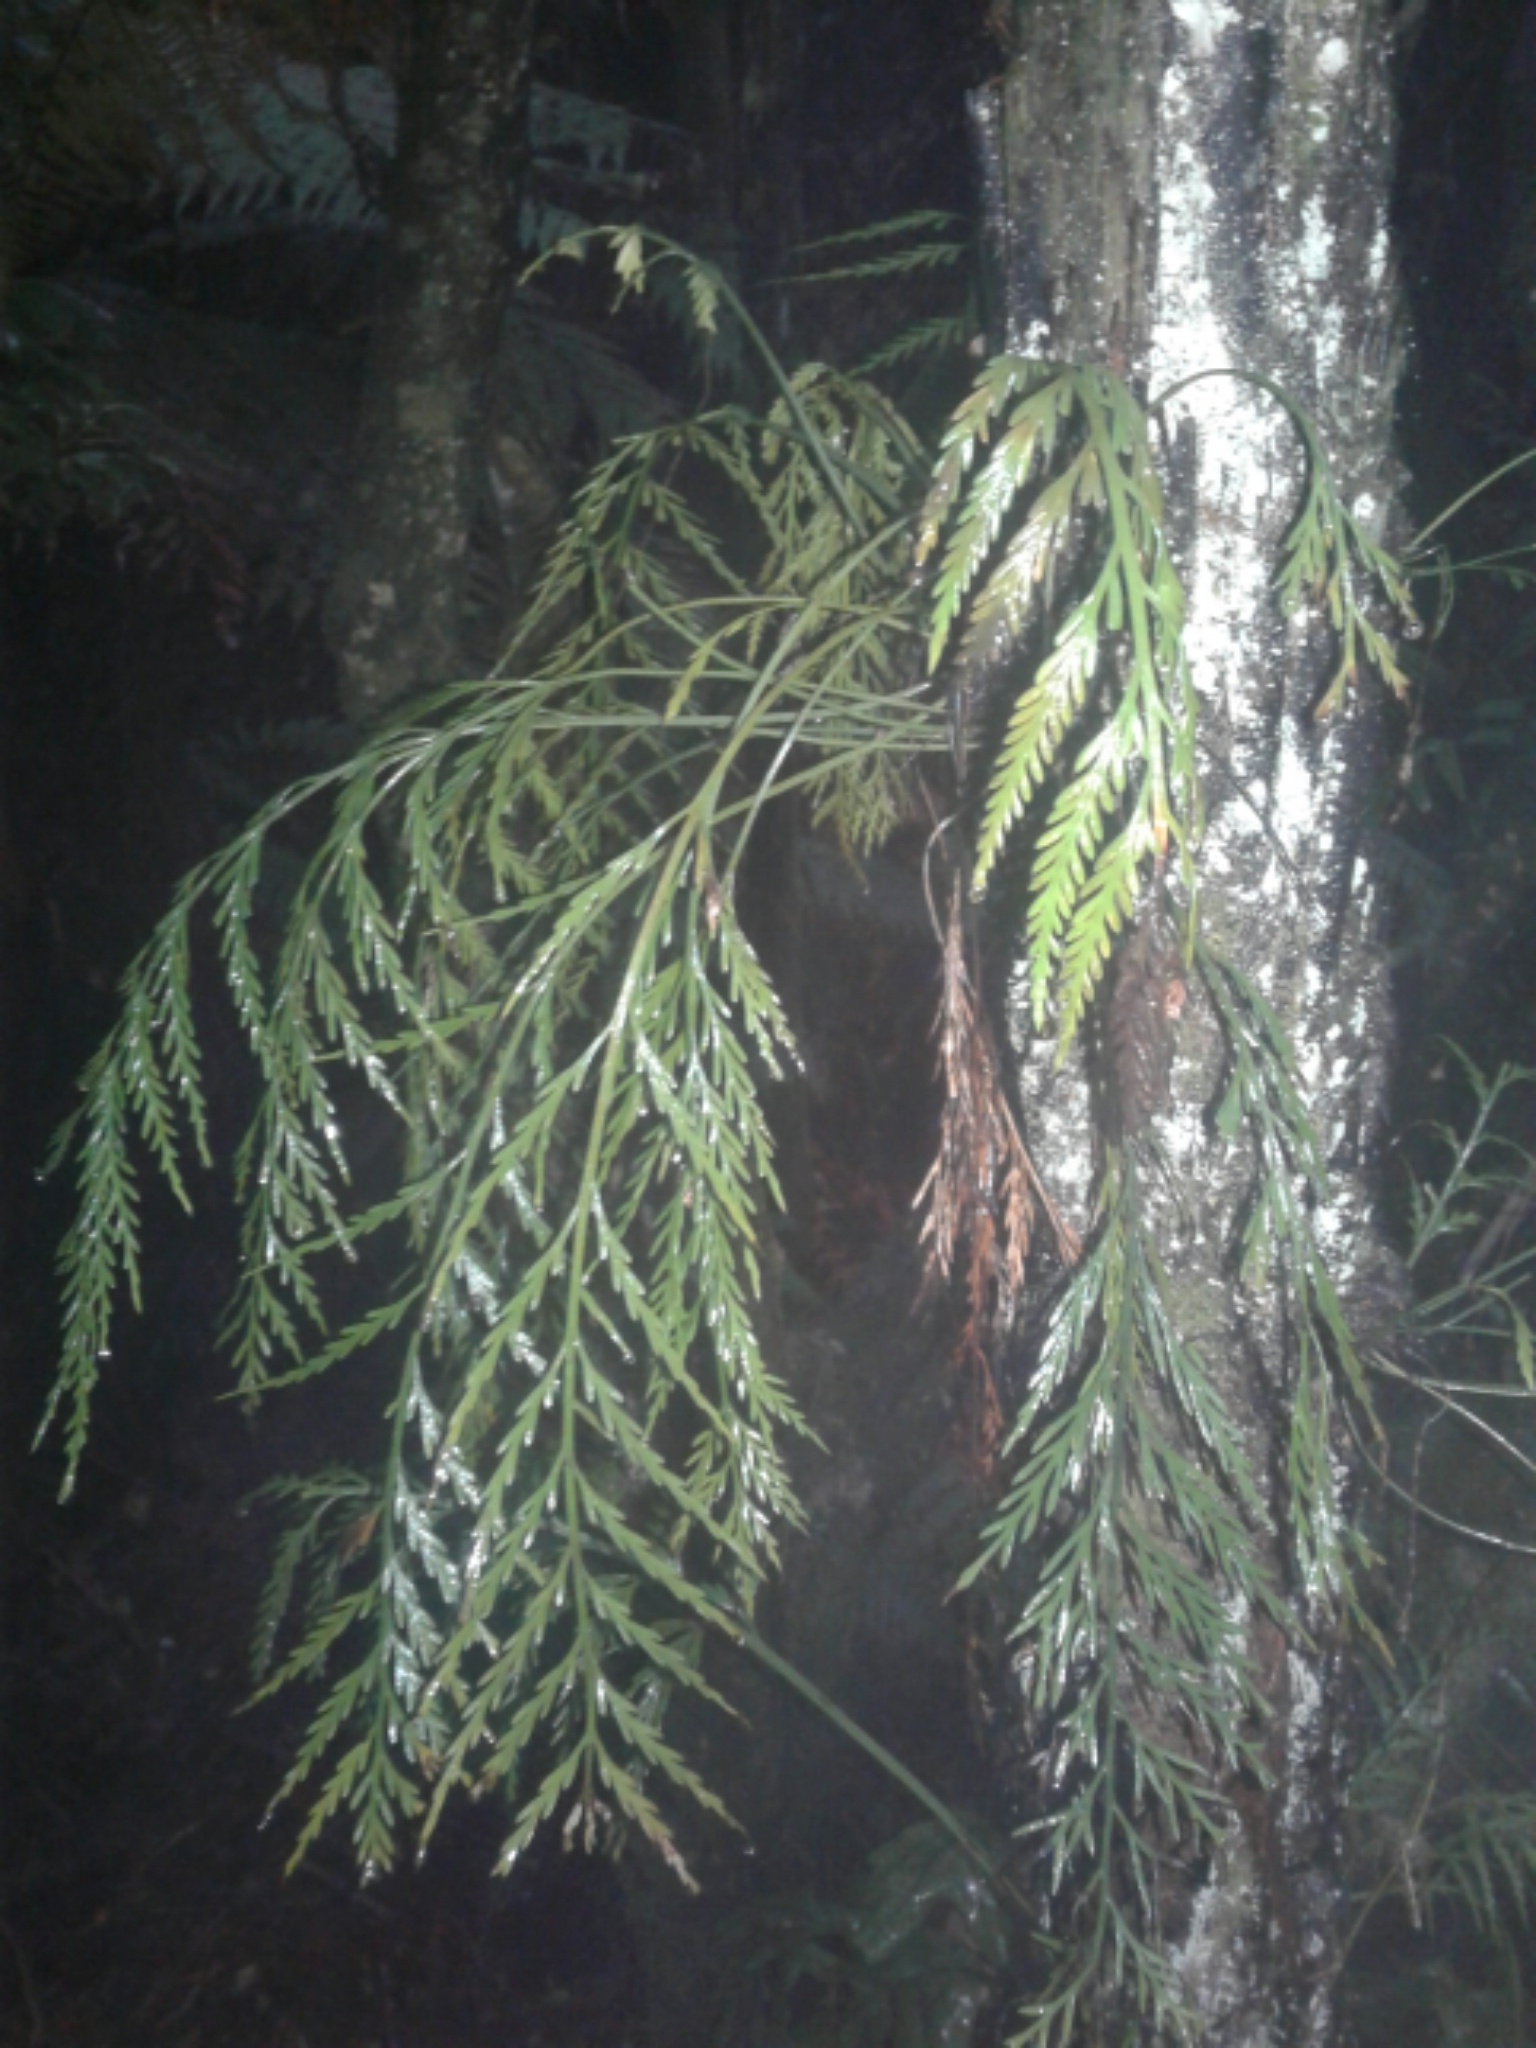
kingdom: Plantae
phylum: Tracheophyta
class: Polypodiopsida
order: Polypodiales
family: Aspleniaceae
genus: Asplenium
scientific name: Asplenium flaccidum
